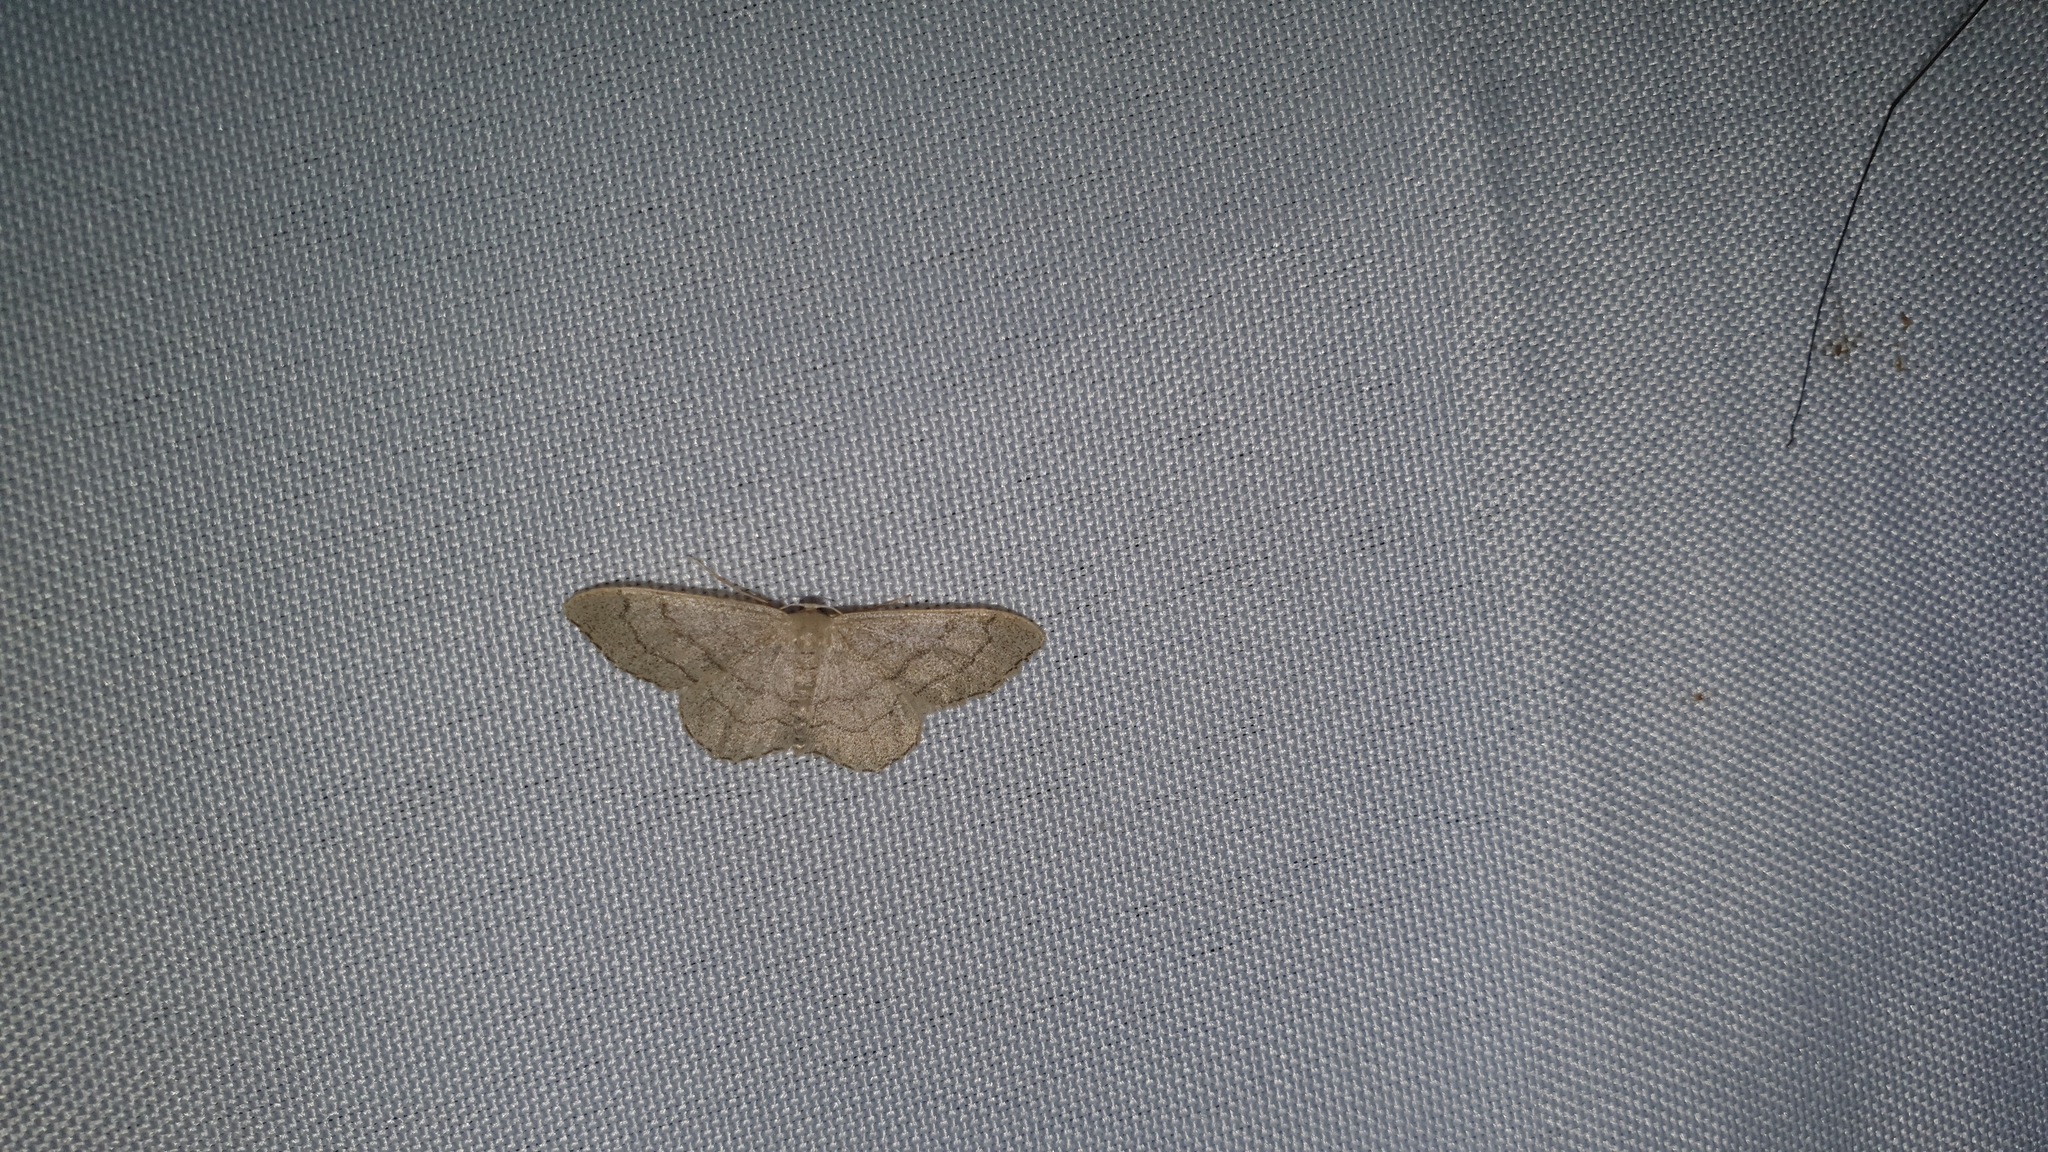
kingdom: Animalia
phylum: Arthropoda
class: Insecta
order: Lepidoptera
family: Geometridae
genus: Idaea
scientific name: Idaea aversata
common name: Riband wave
